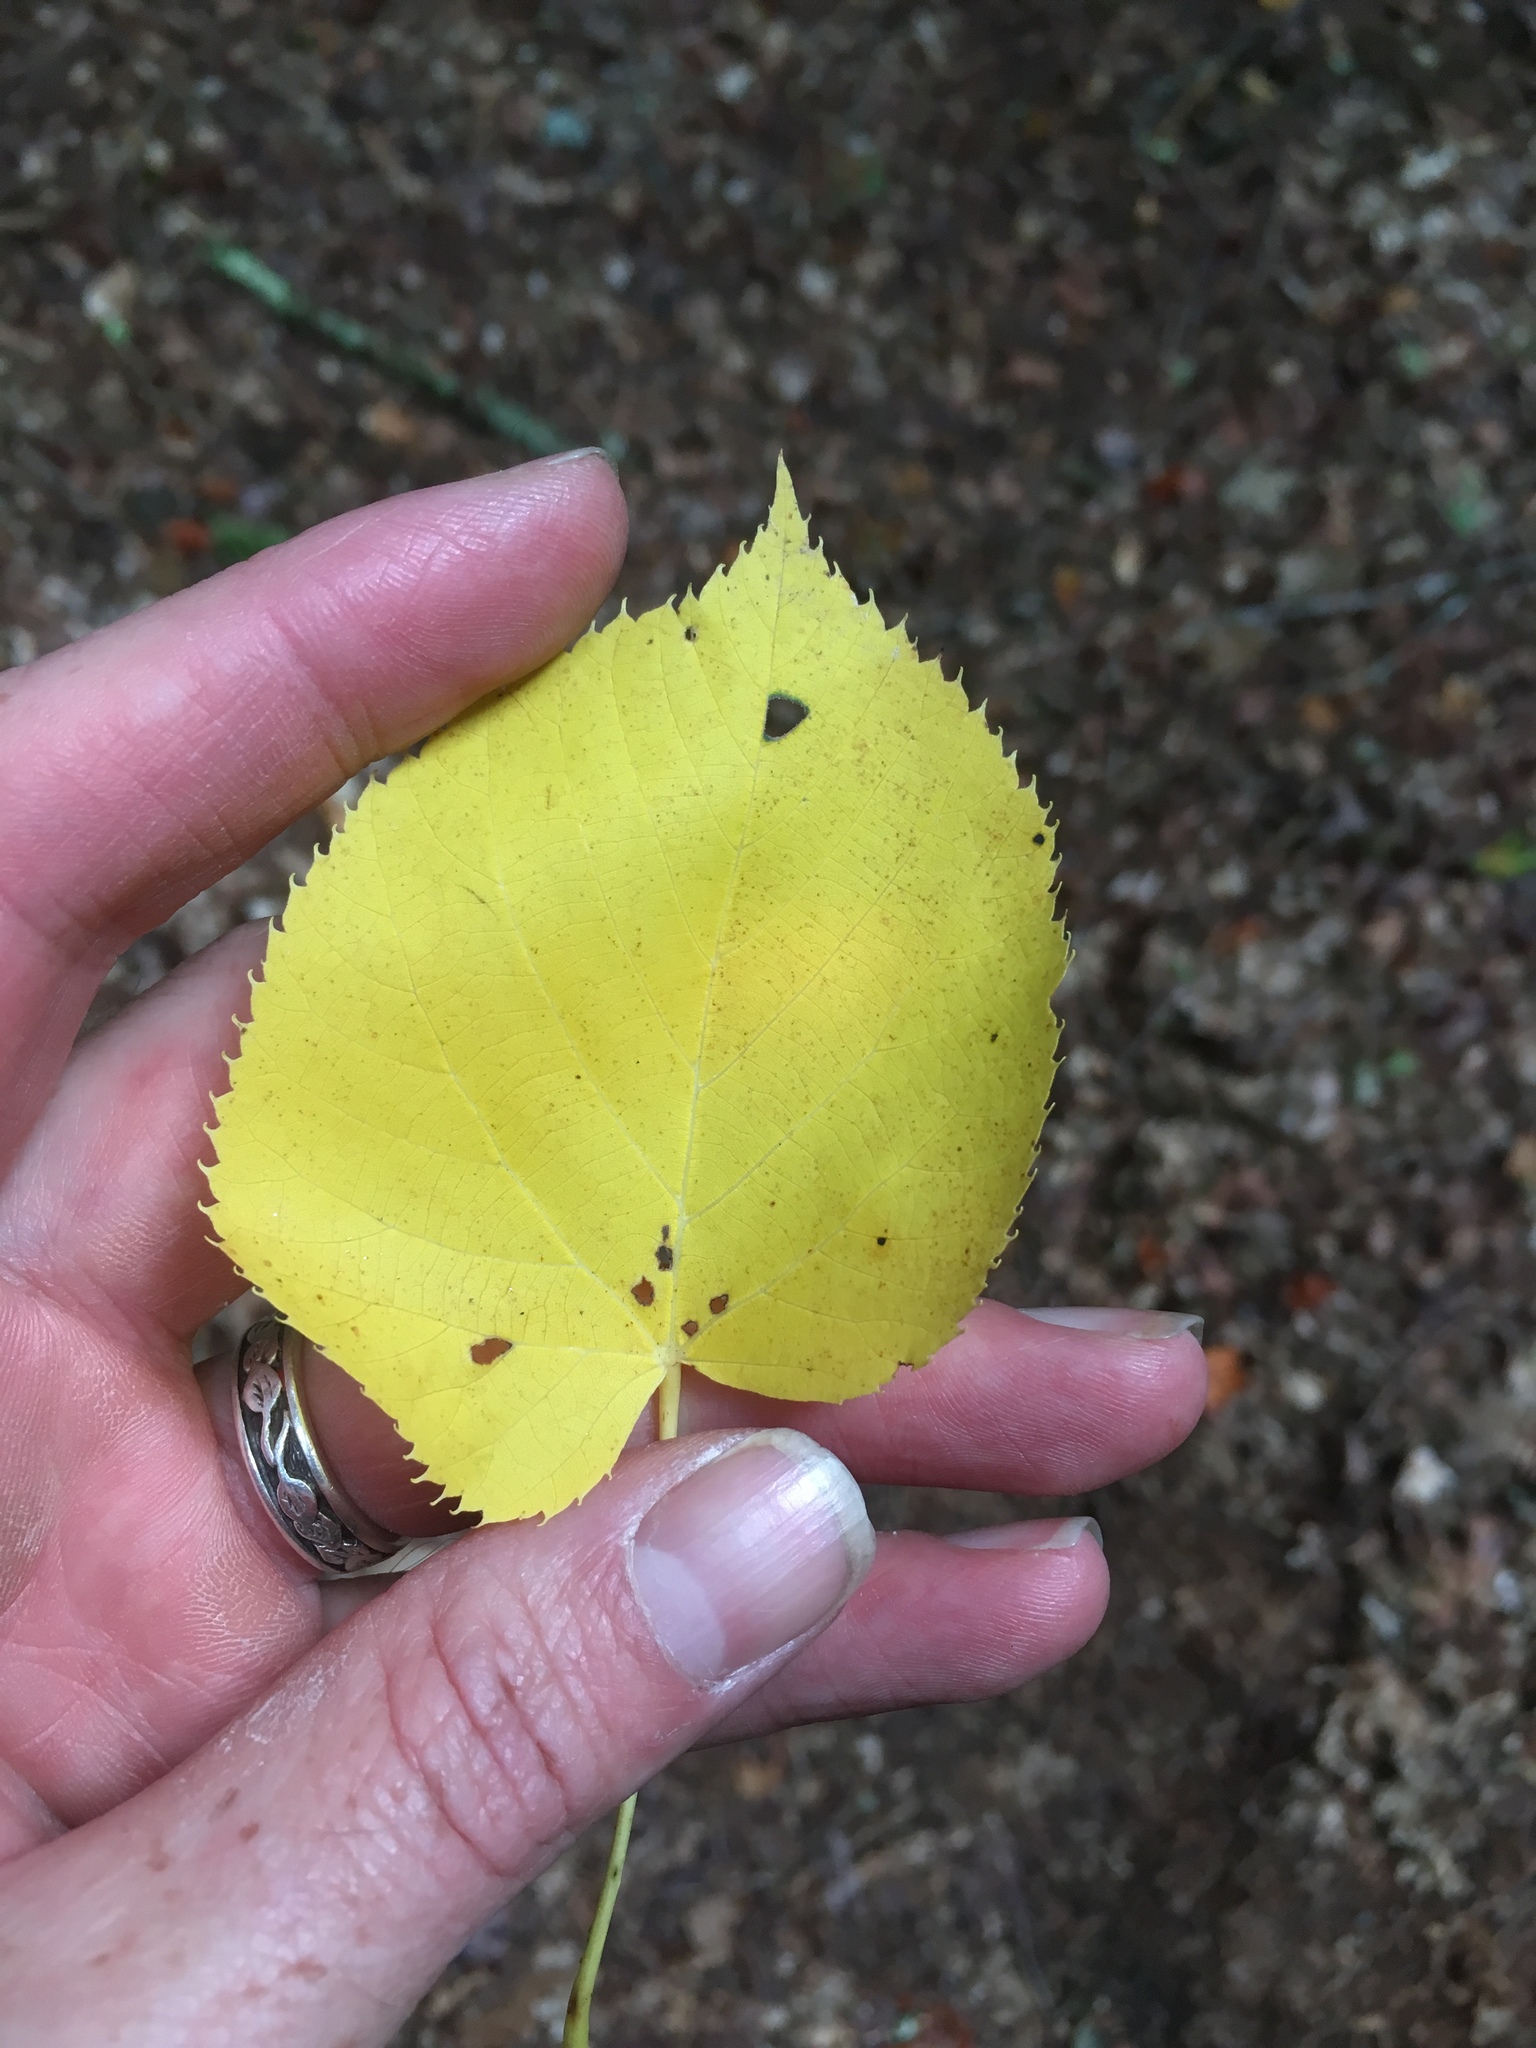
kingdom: Plantae
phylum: Tracheophyta
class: Magnoliopsida
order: Malvales
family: Malvaceae
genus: Tilia
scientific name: Tilia americana
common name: Basswood
